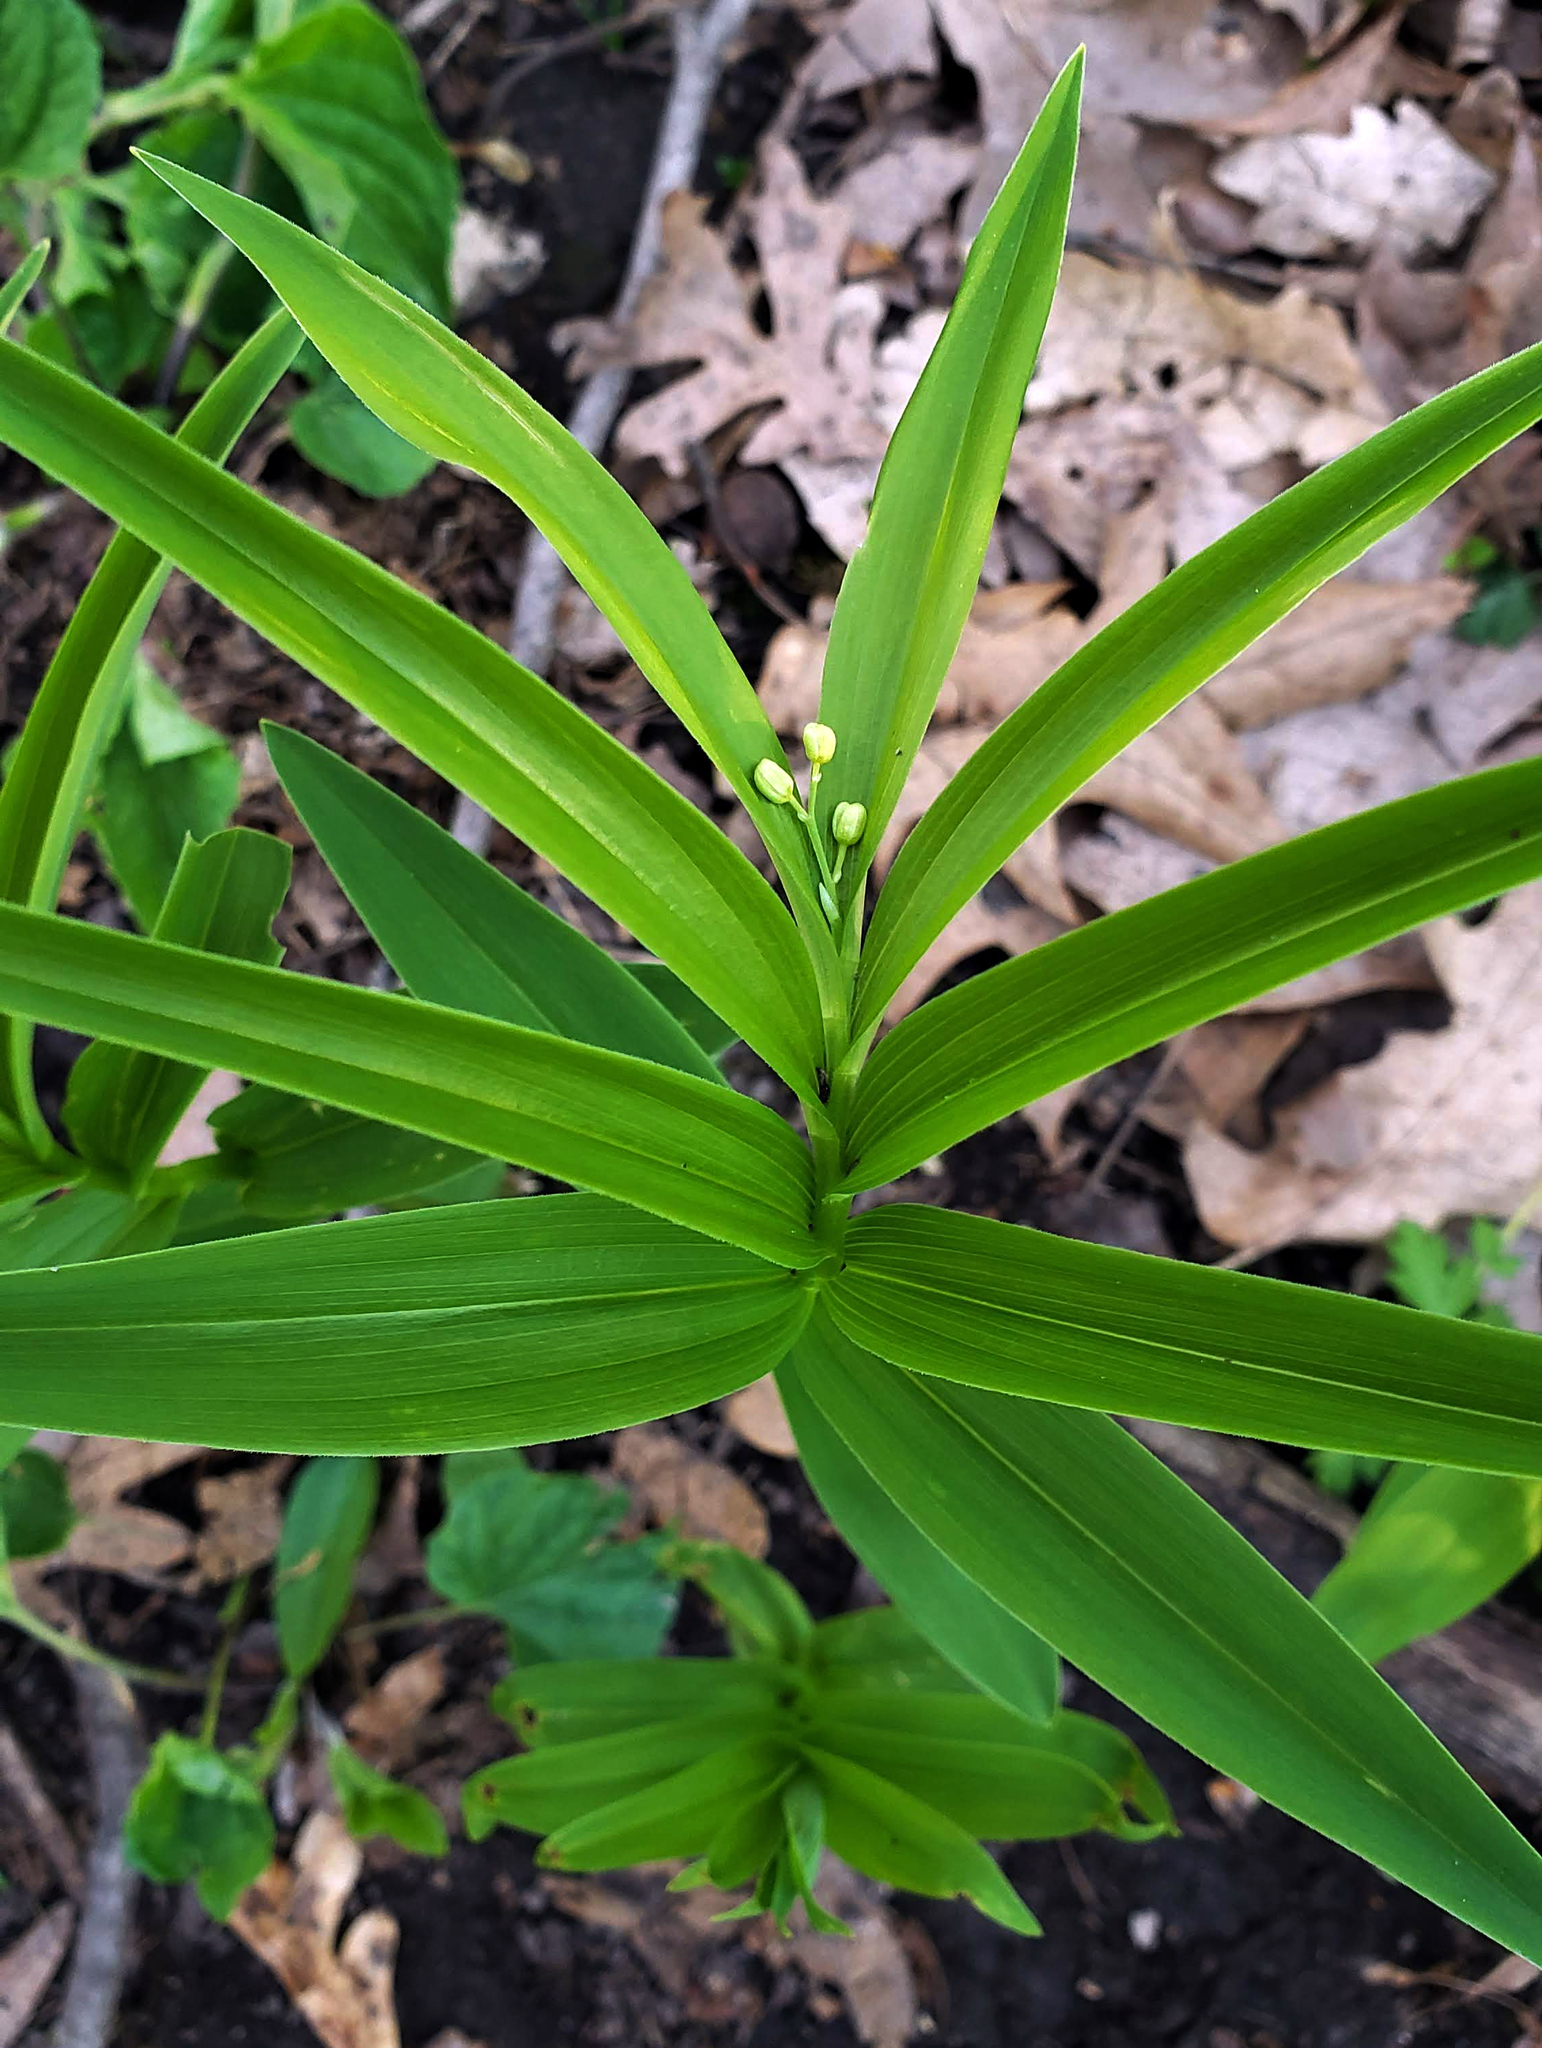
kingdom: Plantae
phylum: Tracheophyta
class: Liliopsida
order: Asparagales
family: Asparagaceae
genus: Maianthemum
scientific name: Maianthemum stellatum
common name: Little false solomon's seal
